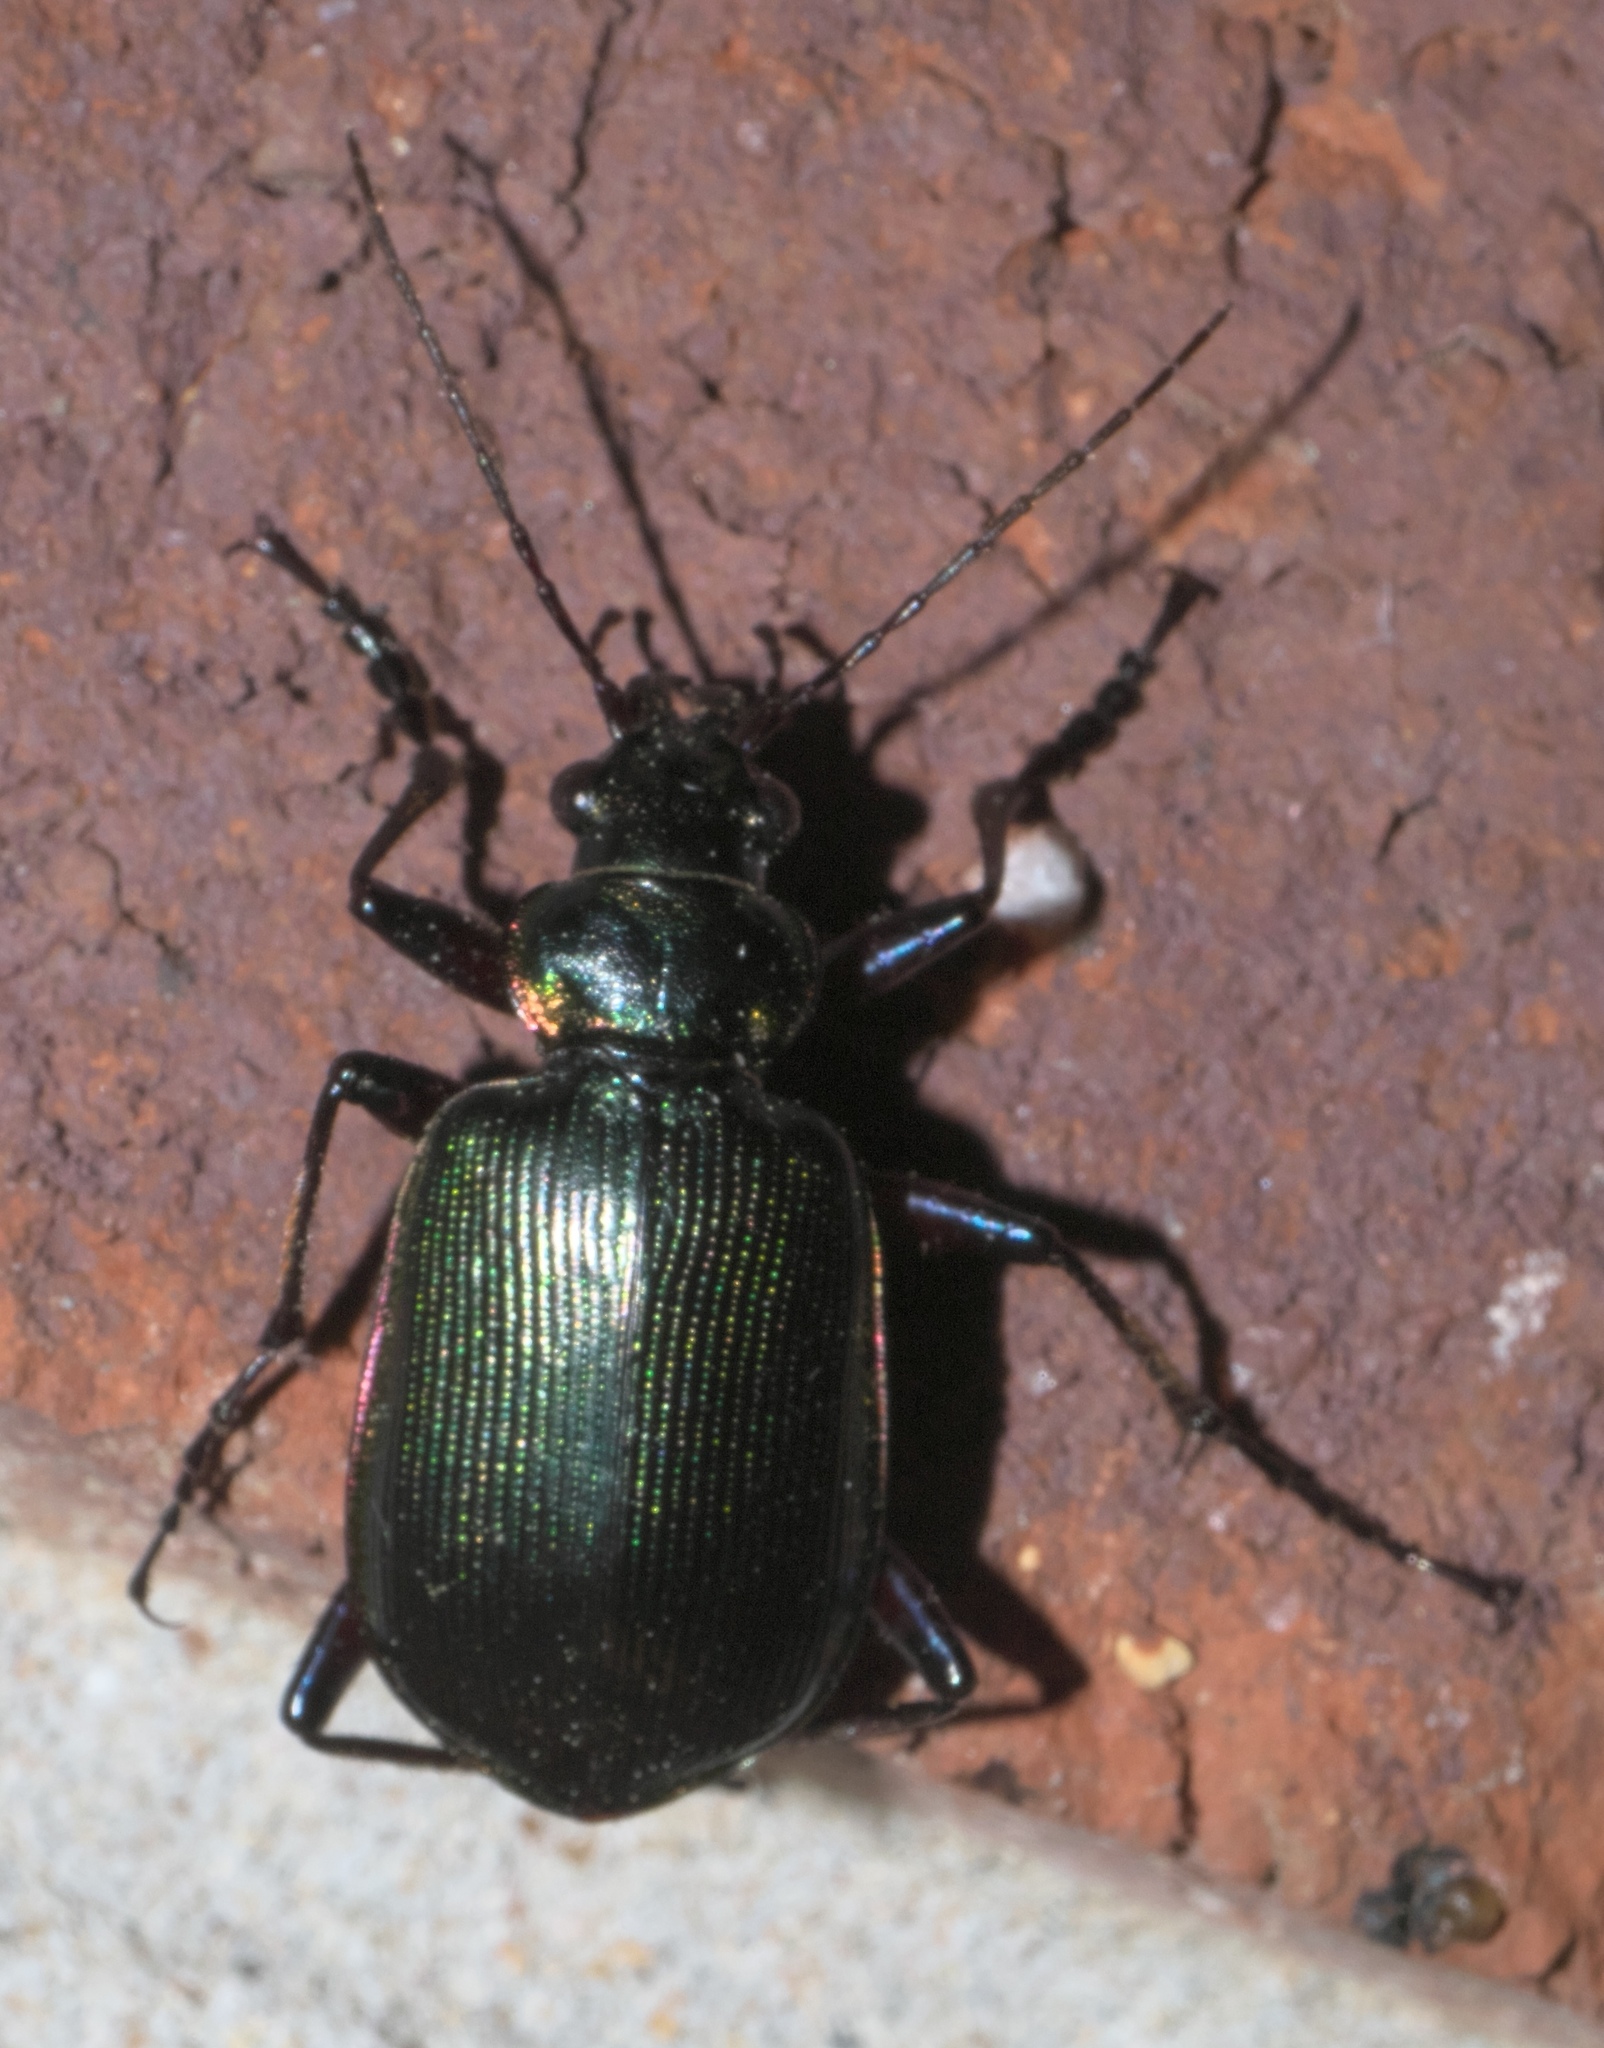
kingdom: Animalia
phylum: Arthropoda
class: Insecta
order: Coleoptera
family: Carabidae
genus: Calosoma
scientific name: Calosoma wilcoxi
